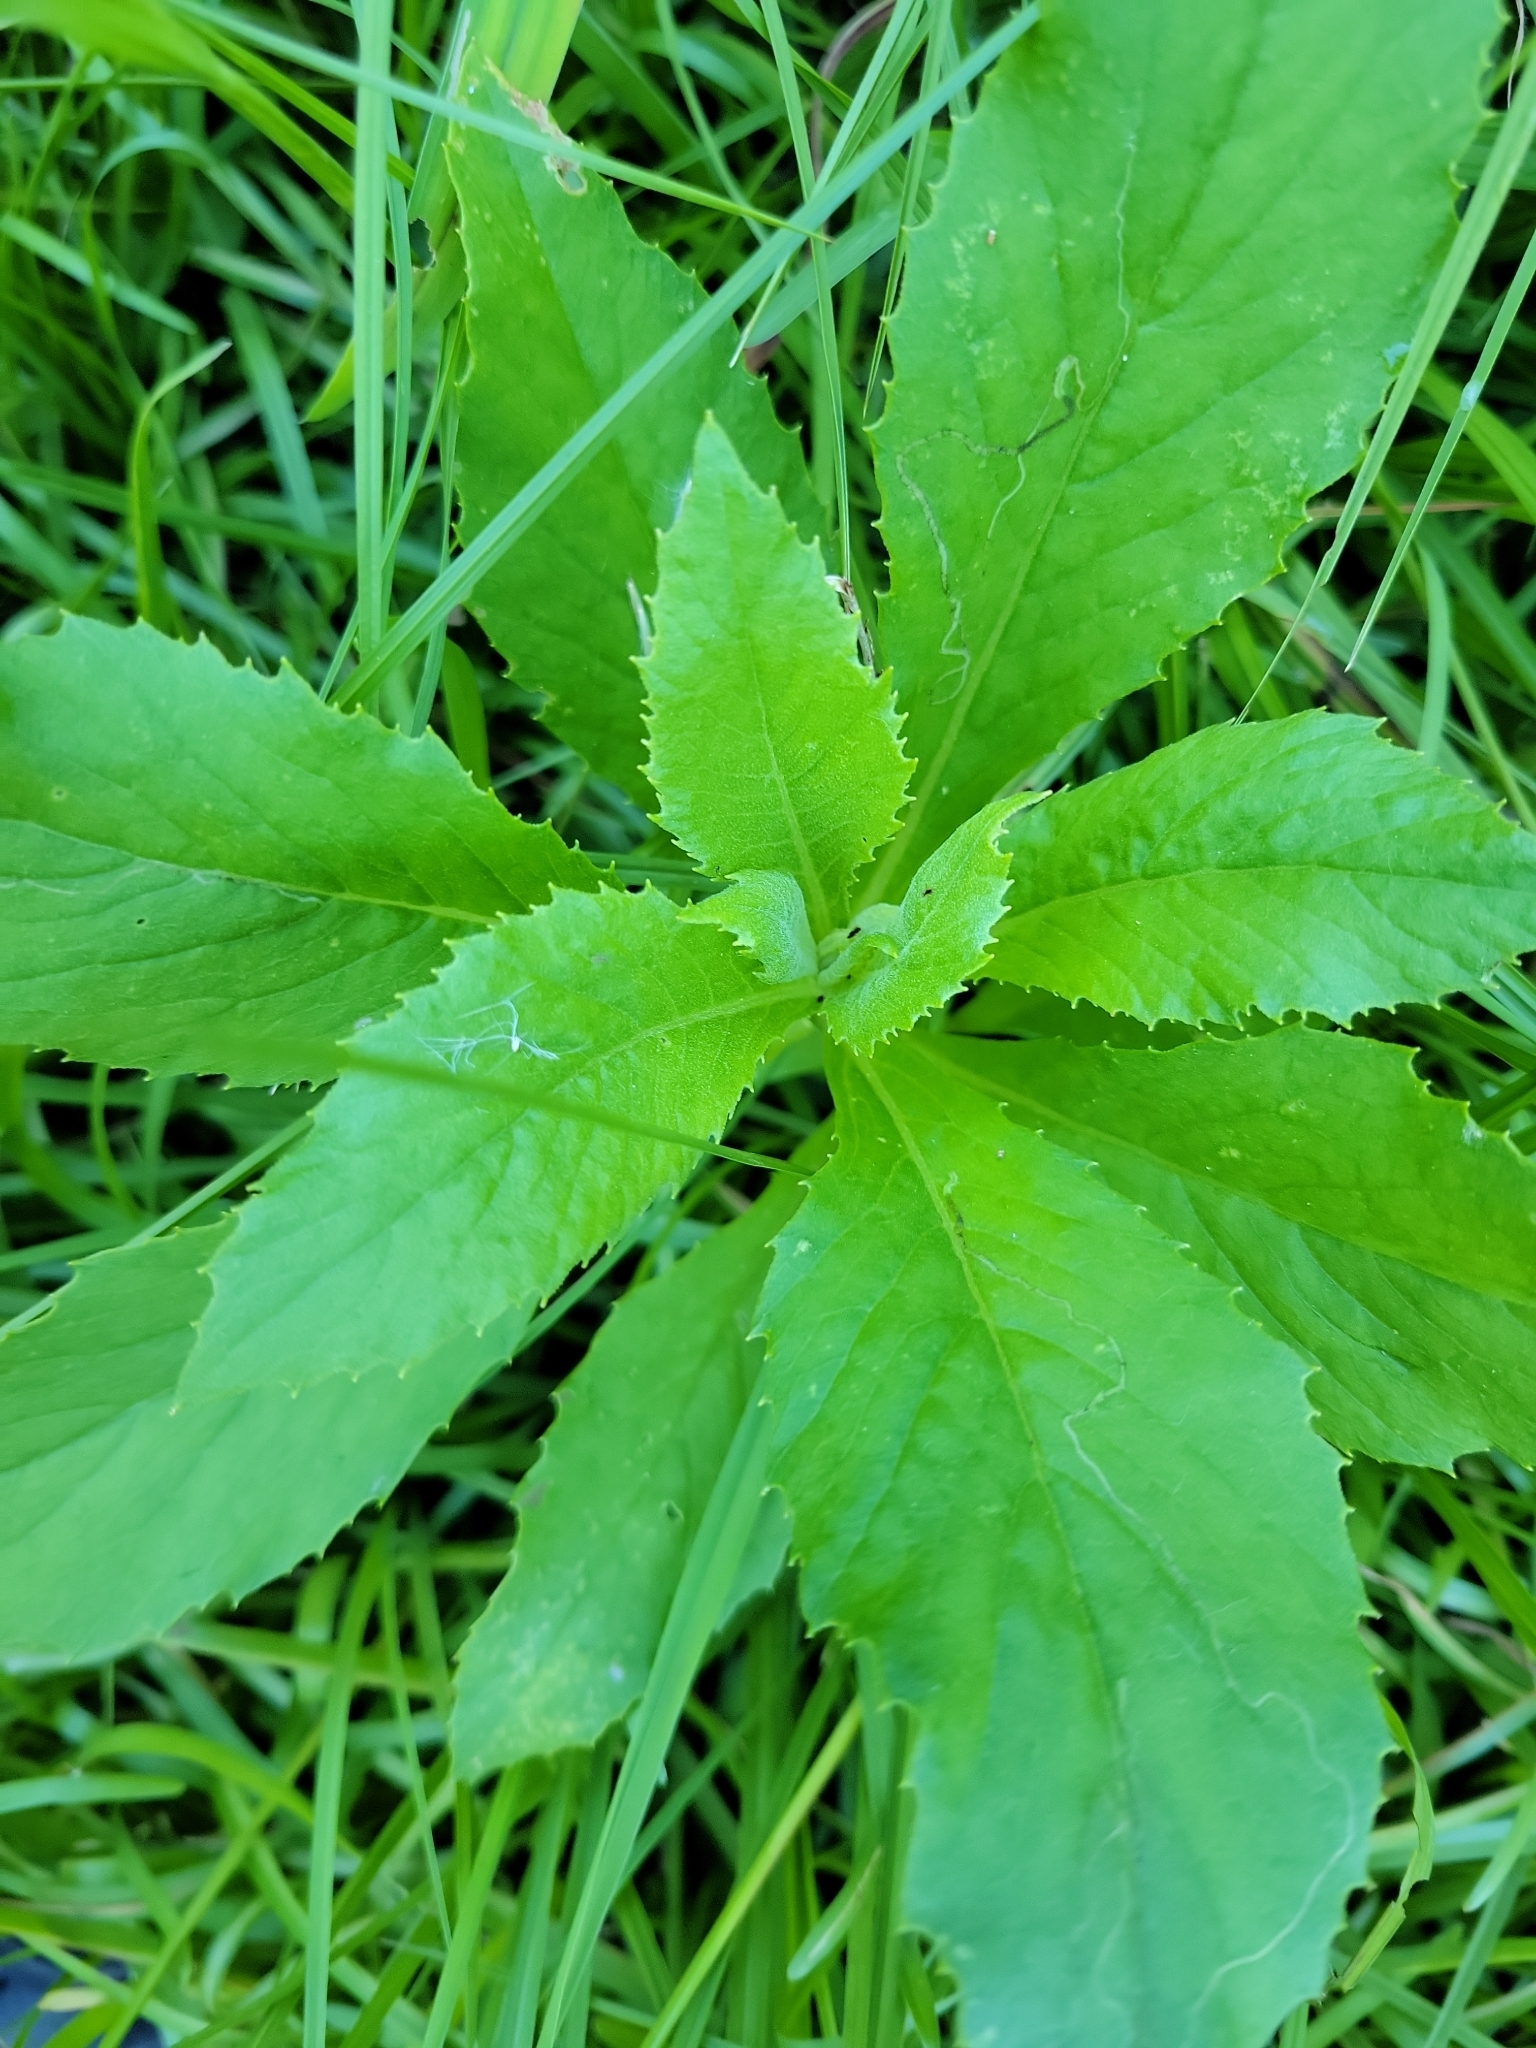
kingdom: Plantae
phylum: Tracheophyta
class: Magnoliopsida
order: Asterales
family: Asteraceae
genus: Erechtites
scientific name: Erechtites hieraciifolius
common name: American burnweed
